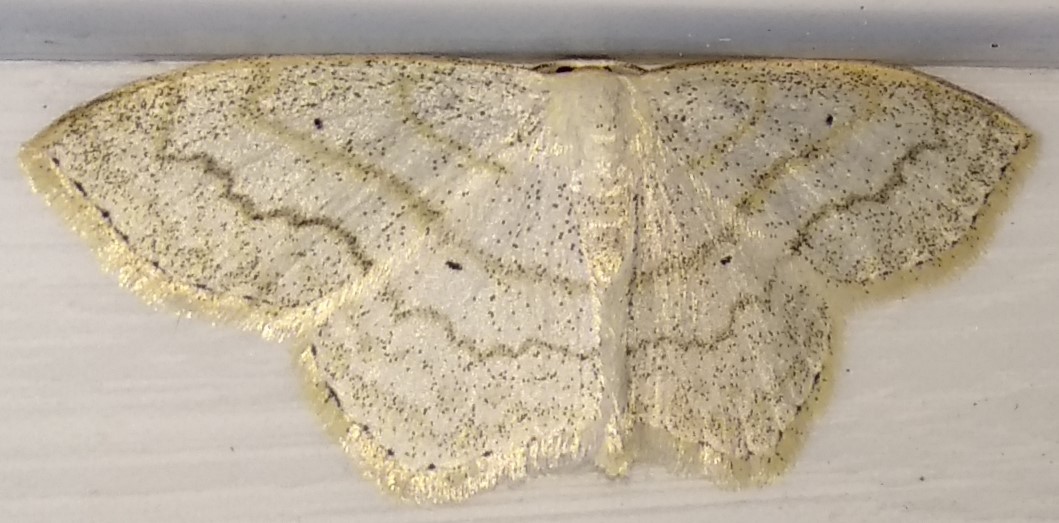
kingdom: Animalia
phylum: Arthropoda
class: Insecta
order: Lepidoptera
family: Geometridae
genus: Scopula
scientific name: Scopula limboundata
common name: Large lace border
